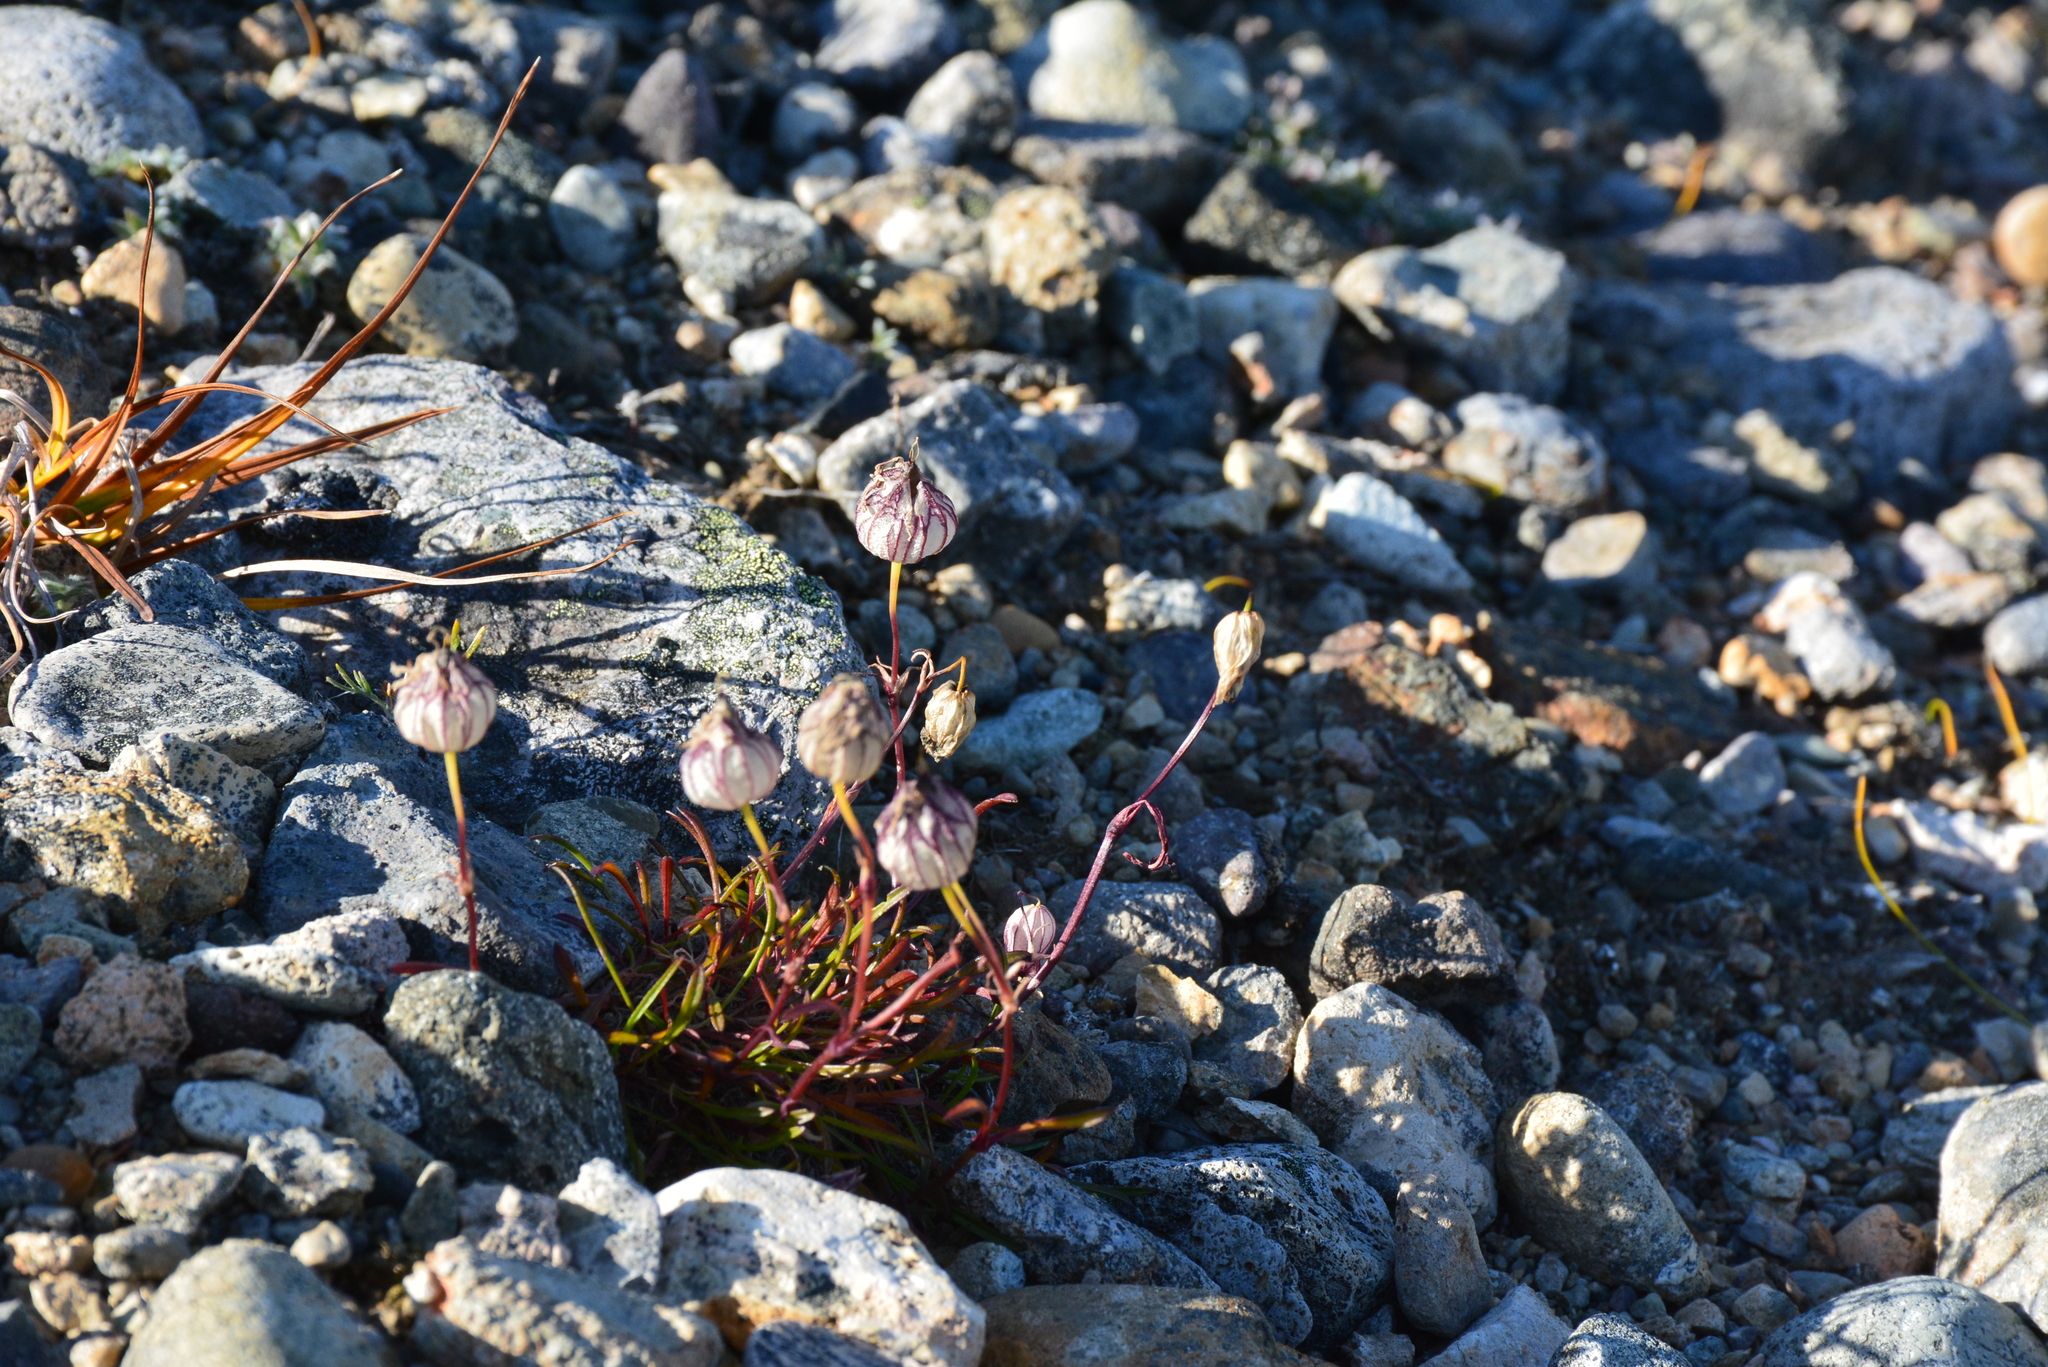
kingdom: Plantae
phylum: Tracheophyta
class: Magnoliopsida
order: Caryophyllales
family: Caryophyllaceae
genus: Silene
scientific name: Silene stenophylla
